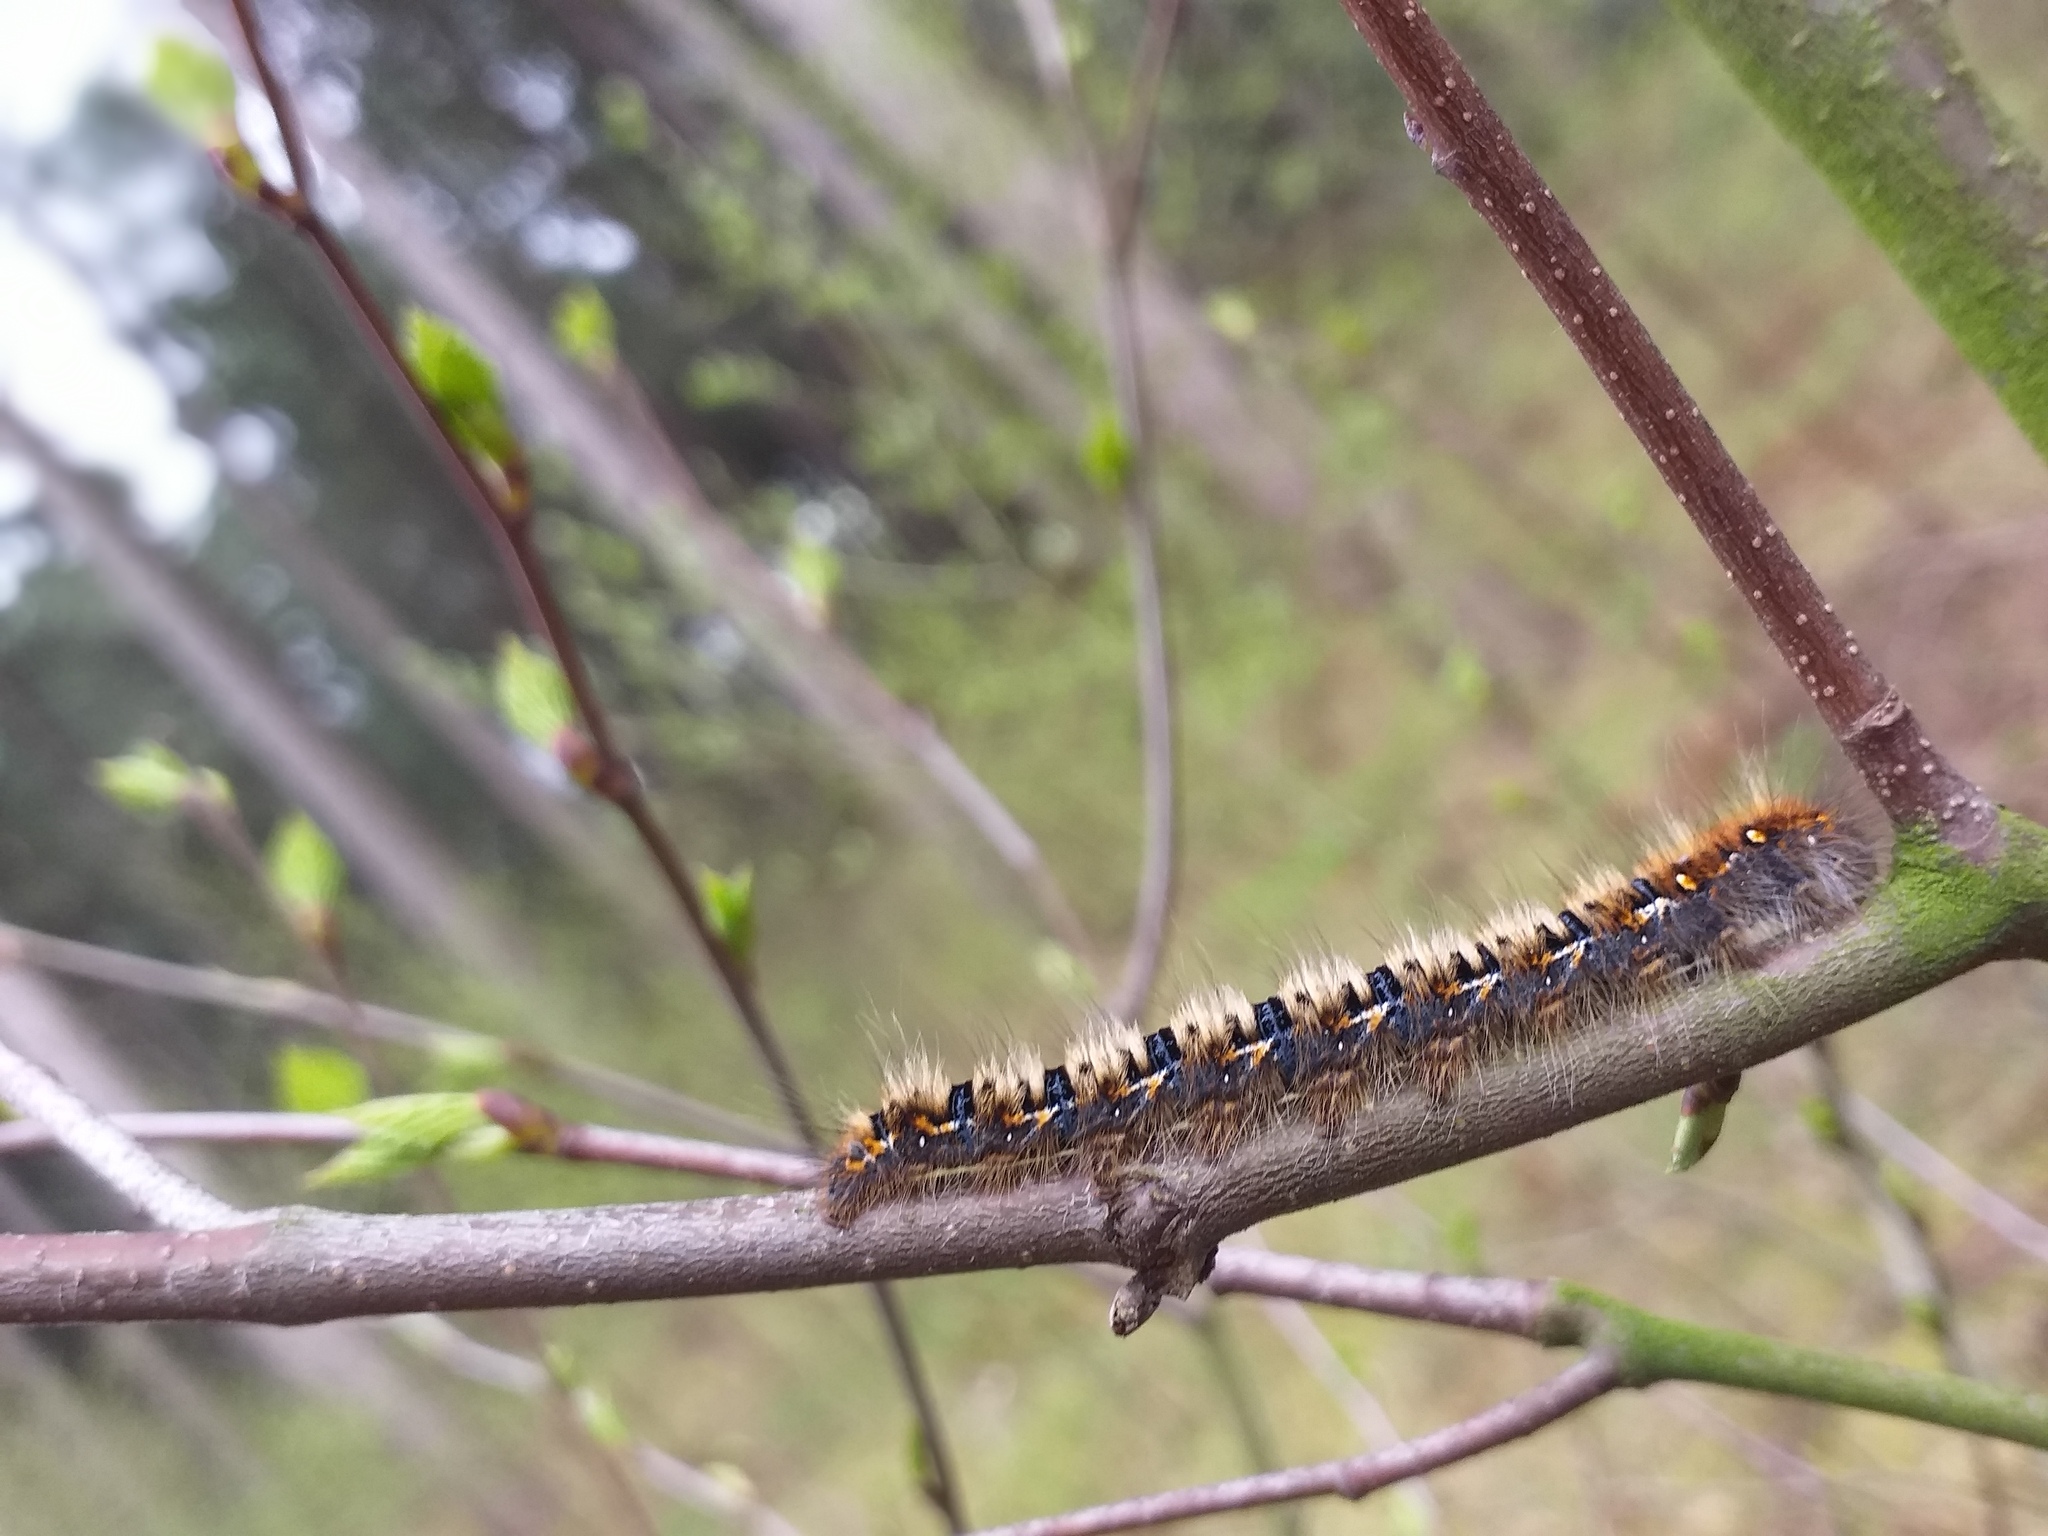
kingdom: Animalia
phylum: Arthropoda
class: Insecta
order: Lepidoptera
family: Lasiocampidae
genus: Lasiocampa
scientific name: Lasiocampa quercus
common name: Oak eggar
